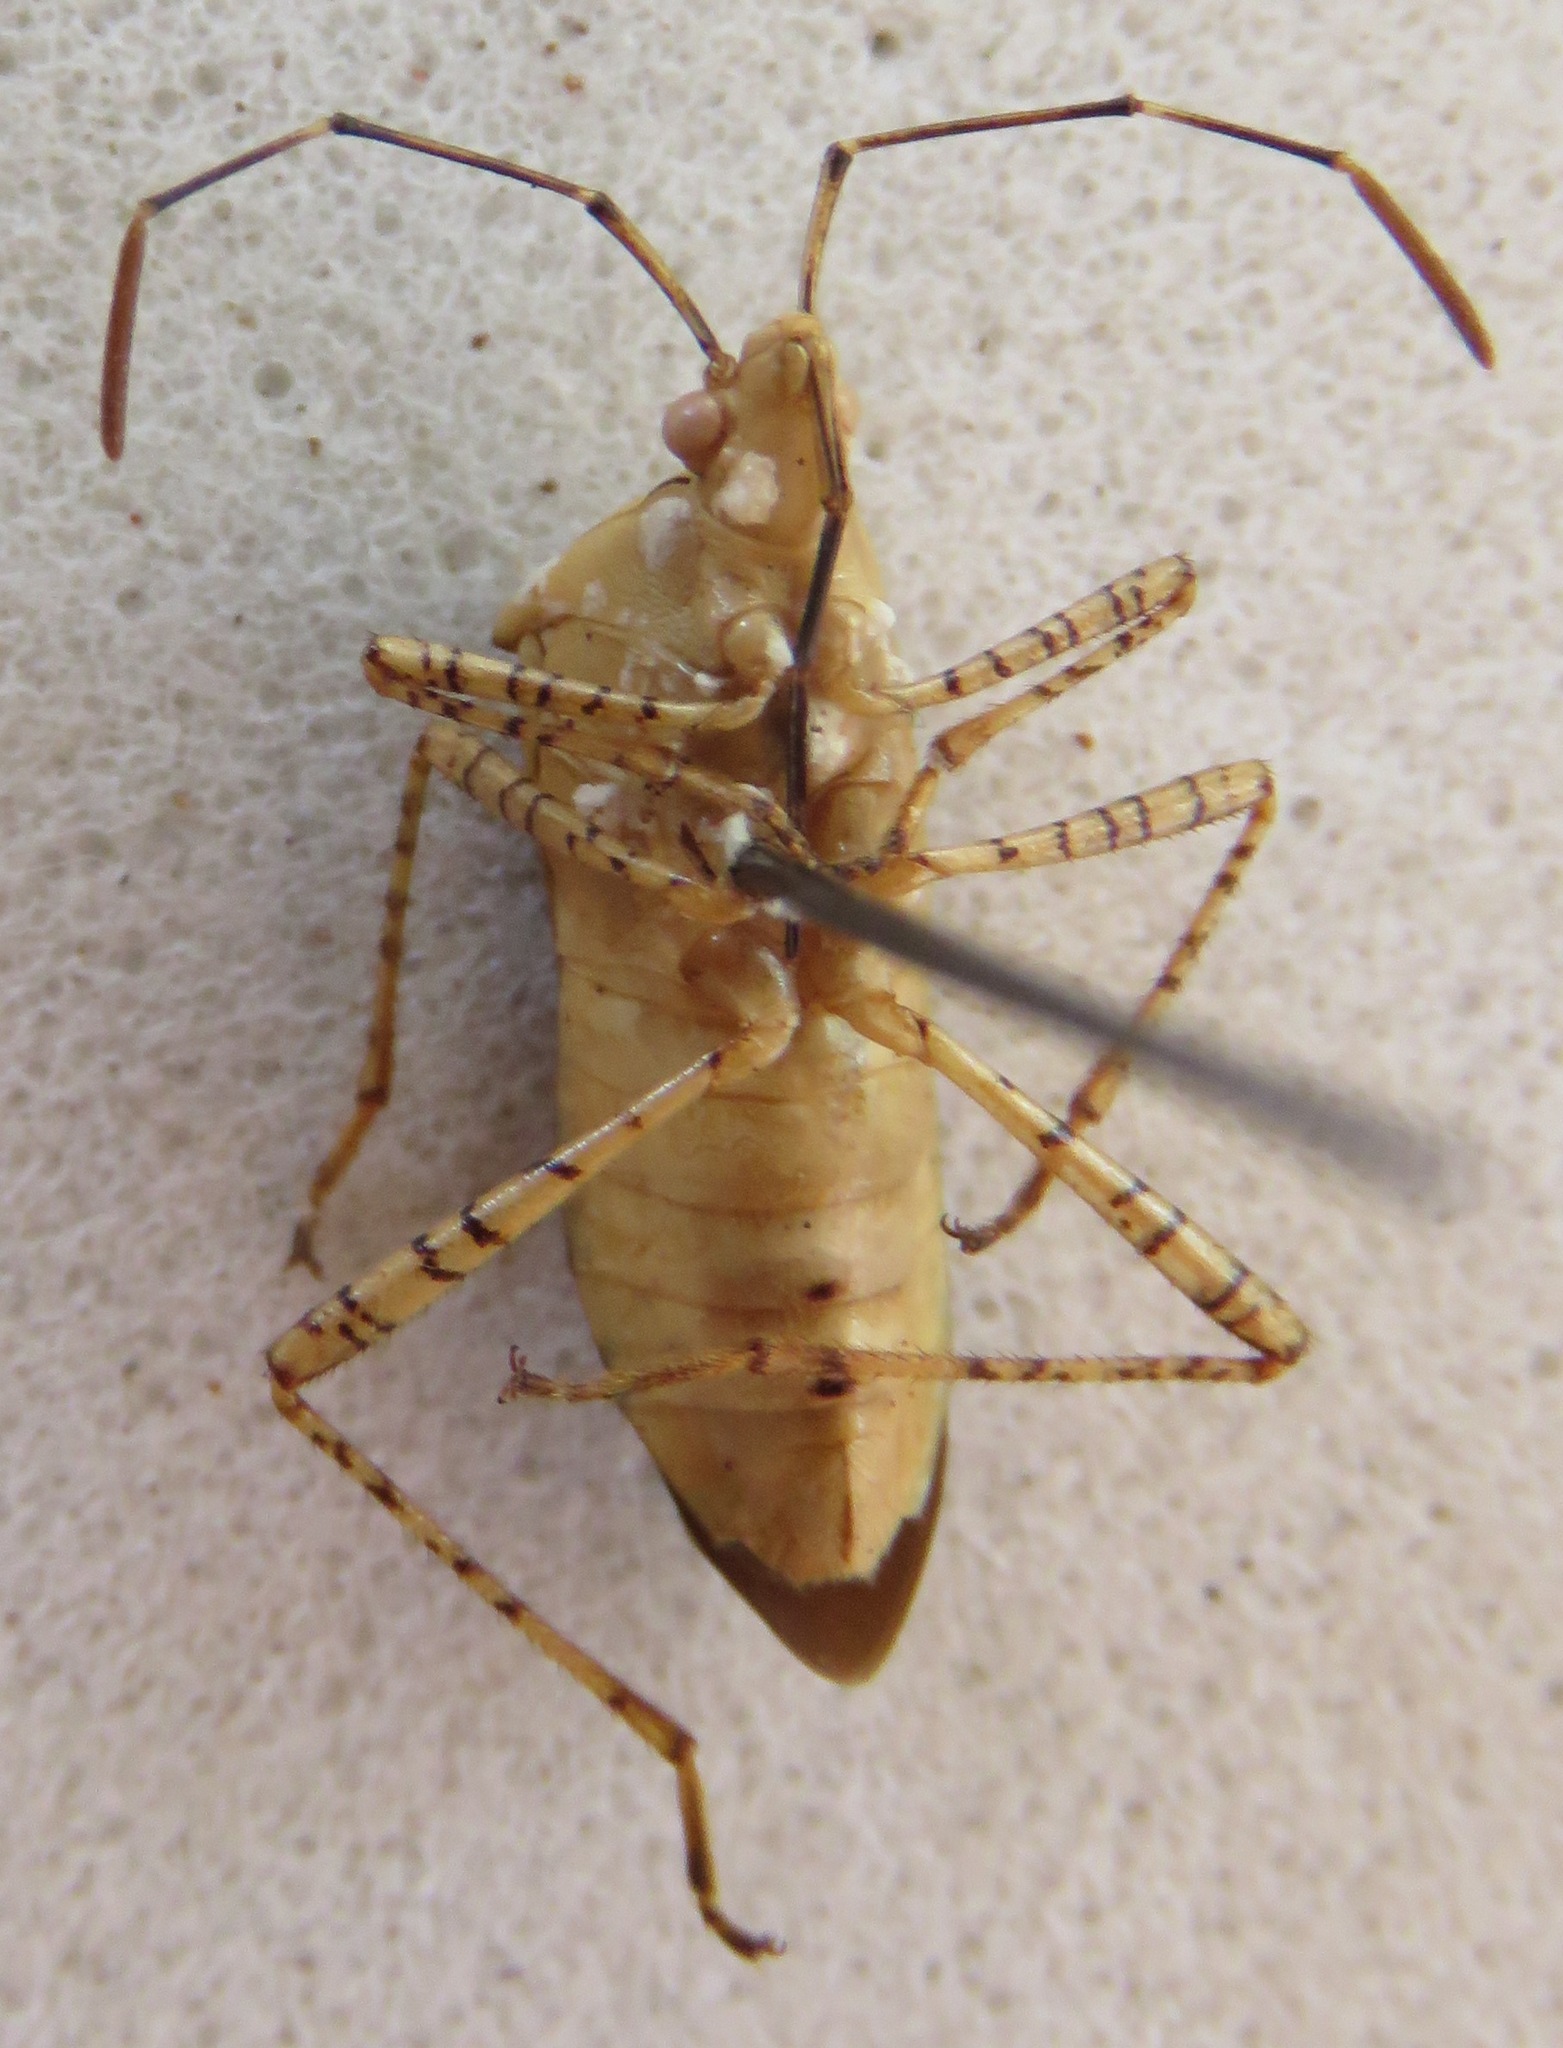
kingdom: Animalia
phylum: Arthropoda
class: Insecta
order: Hemiptera
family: Coreidae
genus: Hypselonotus
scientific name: Hypselonotus lineatus
